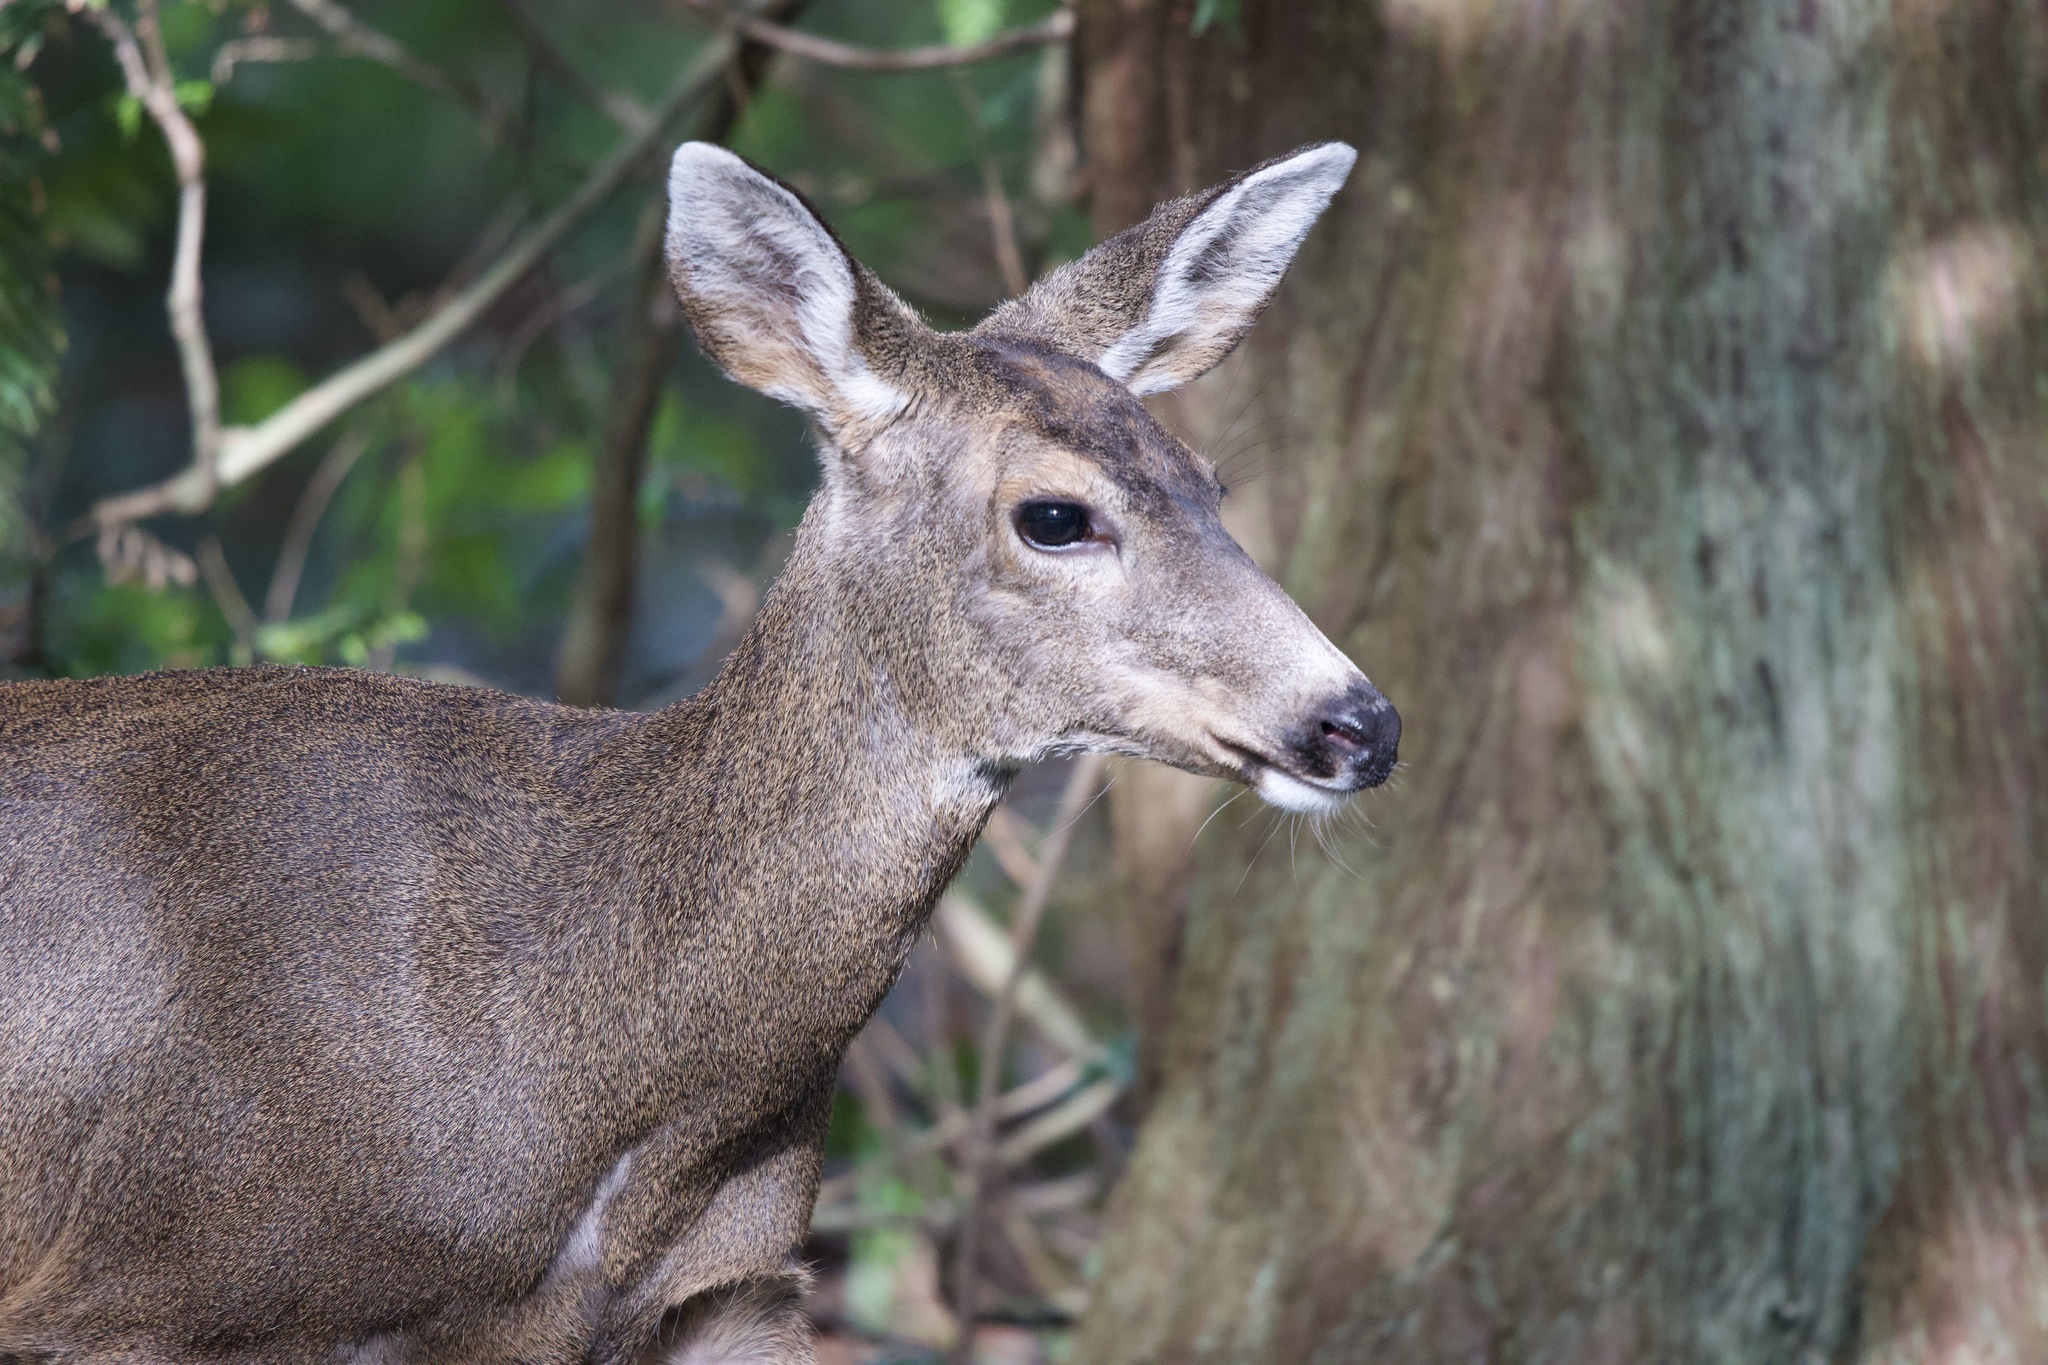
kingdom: Animalia
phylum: Chordata
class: Mammalia
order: Artiodactyla
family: Cervidae
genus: Odocoileus
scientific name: Odocoileus hemionus
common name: Mule deer
